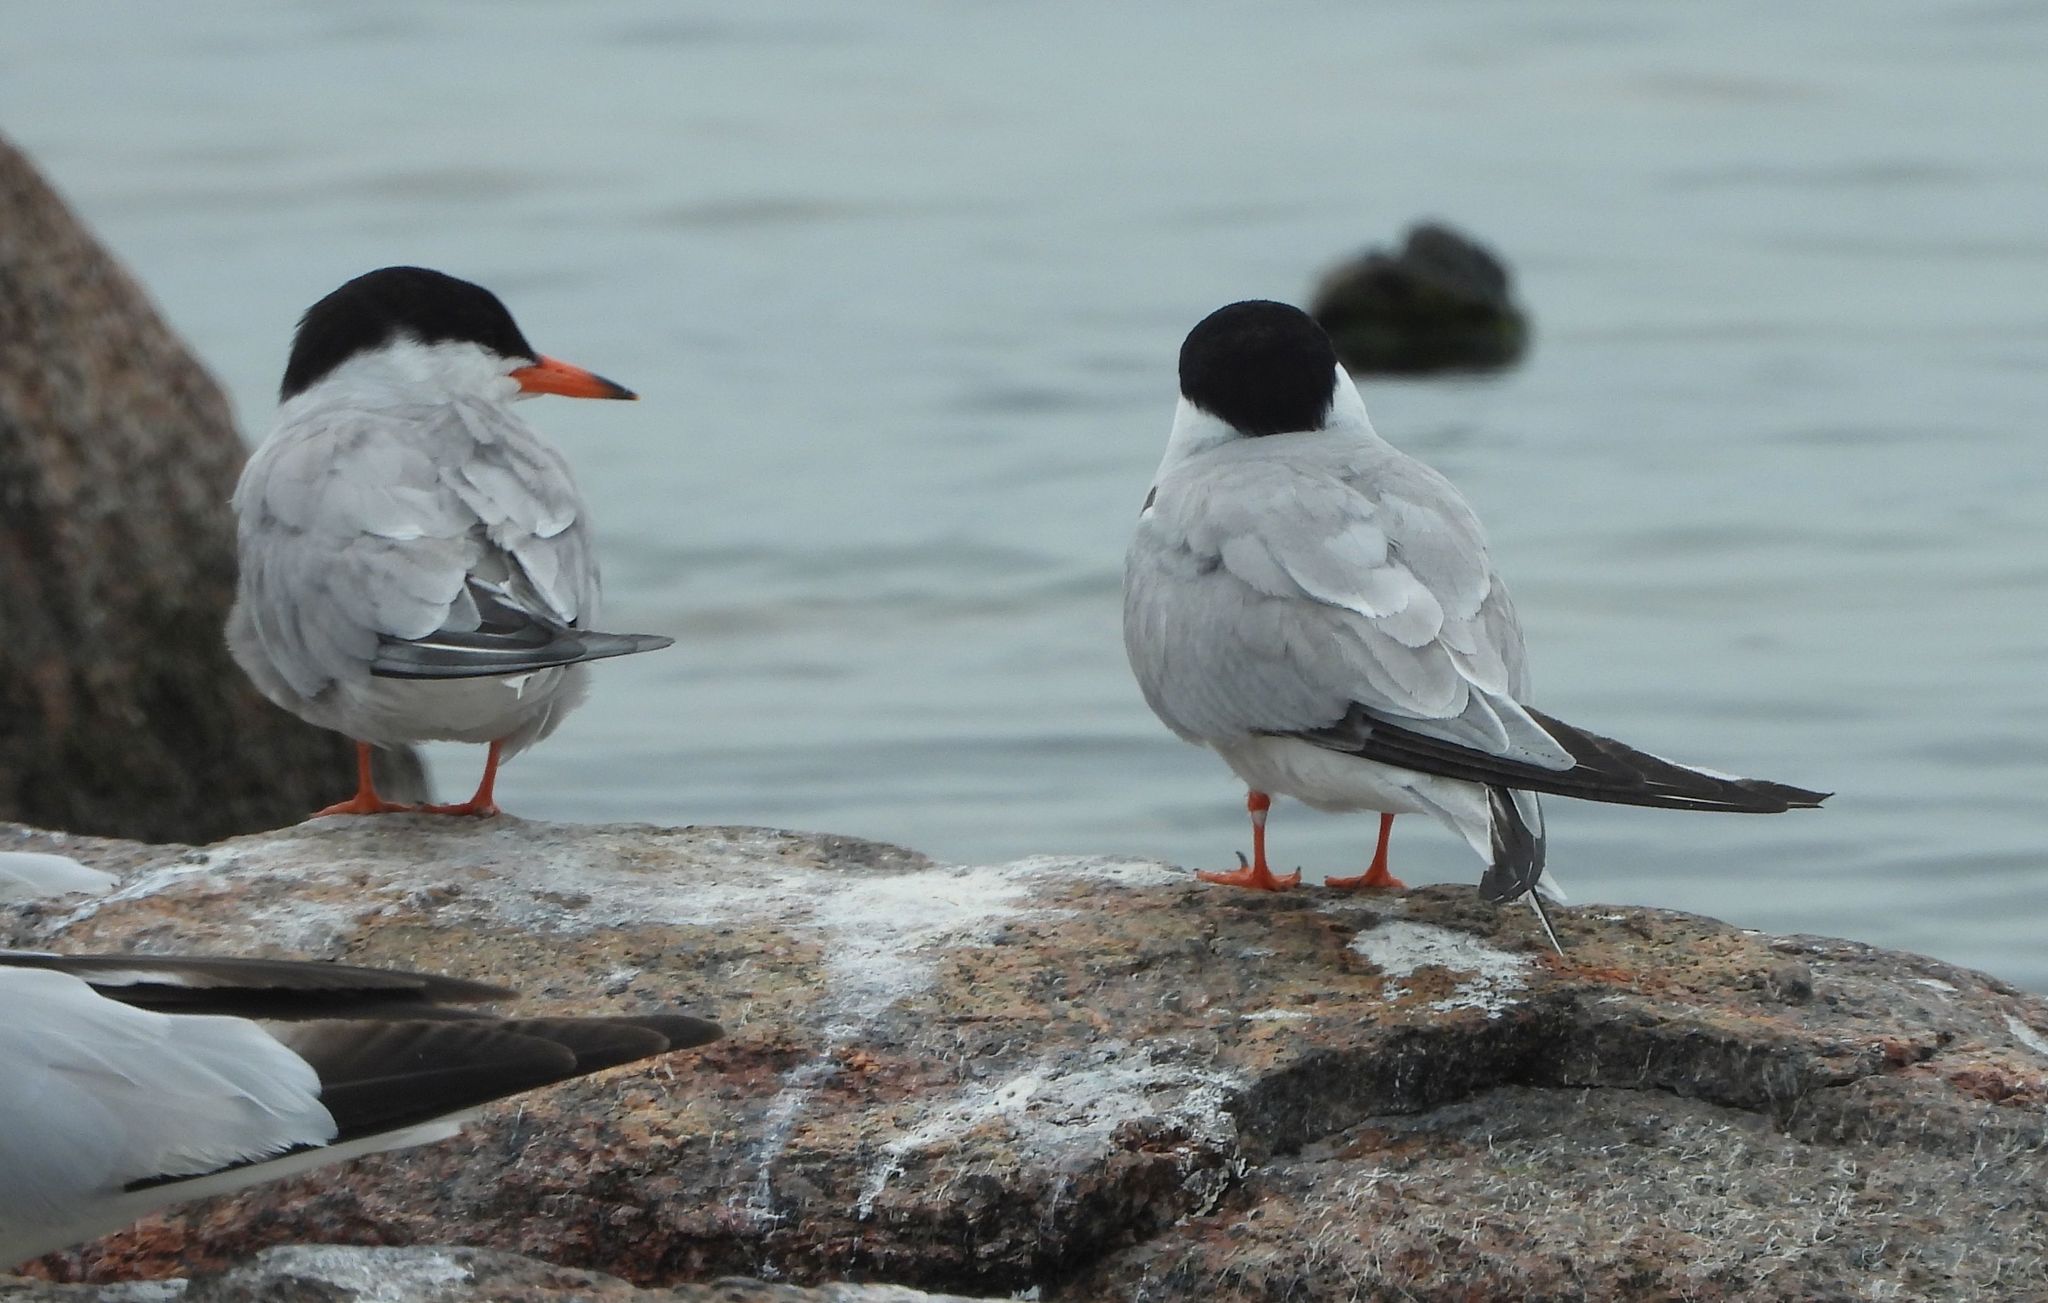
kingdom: Animalia
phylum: Chordata
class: Aves
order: Charadriiformes
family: Laridae
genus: Sterna
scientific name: Sterna hirundo
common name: Common tern
